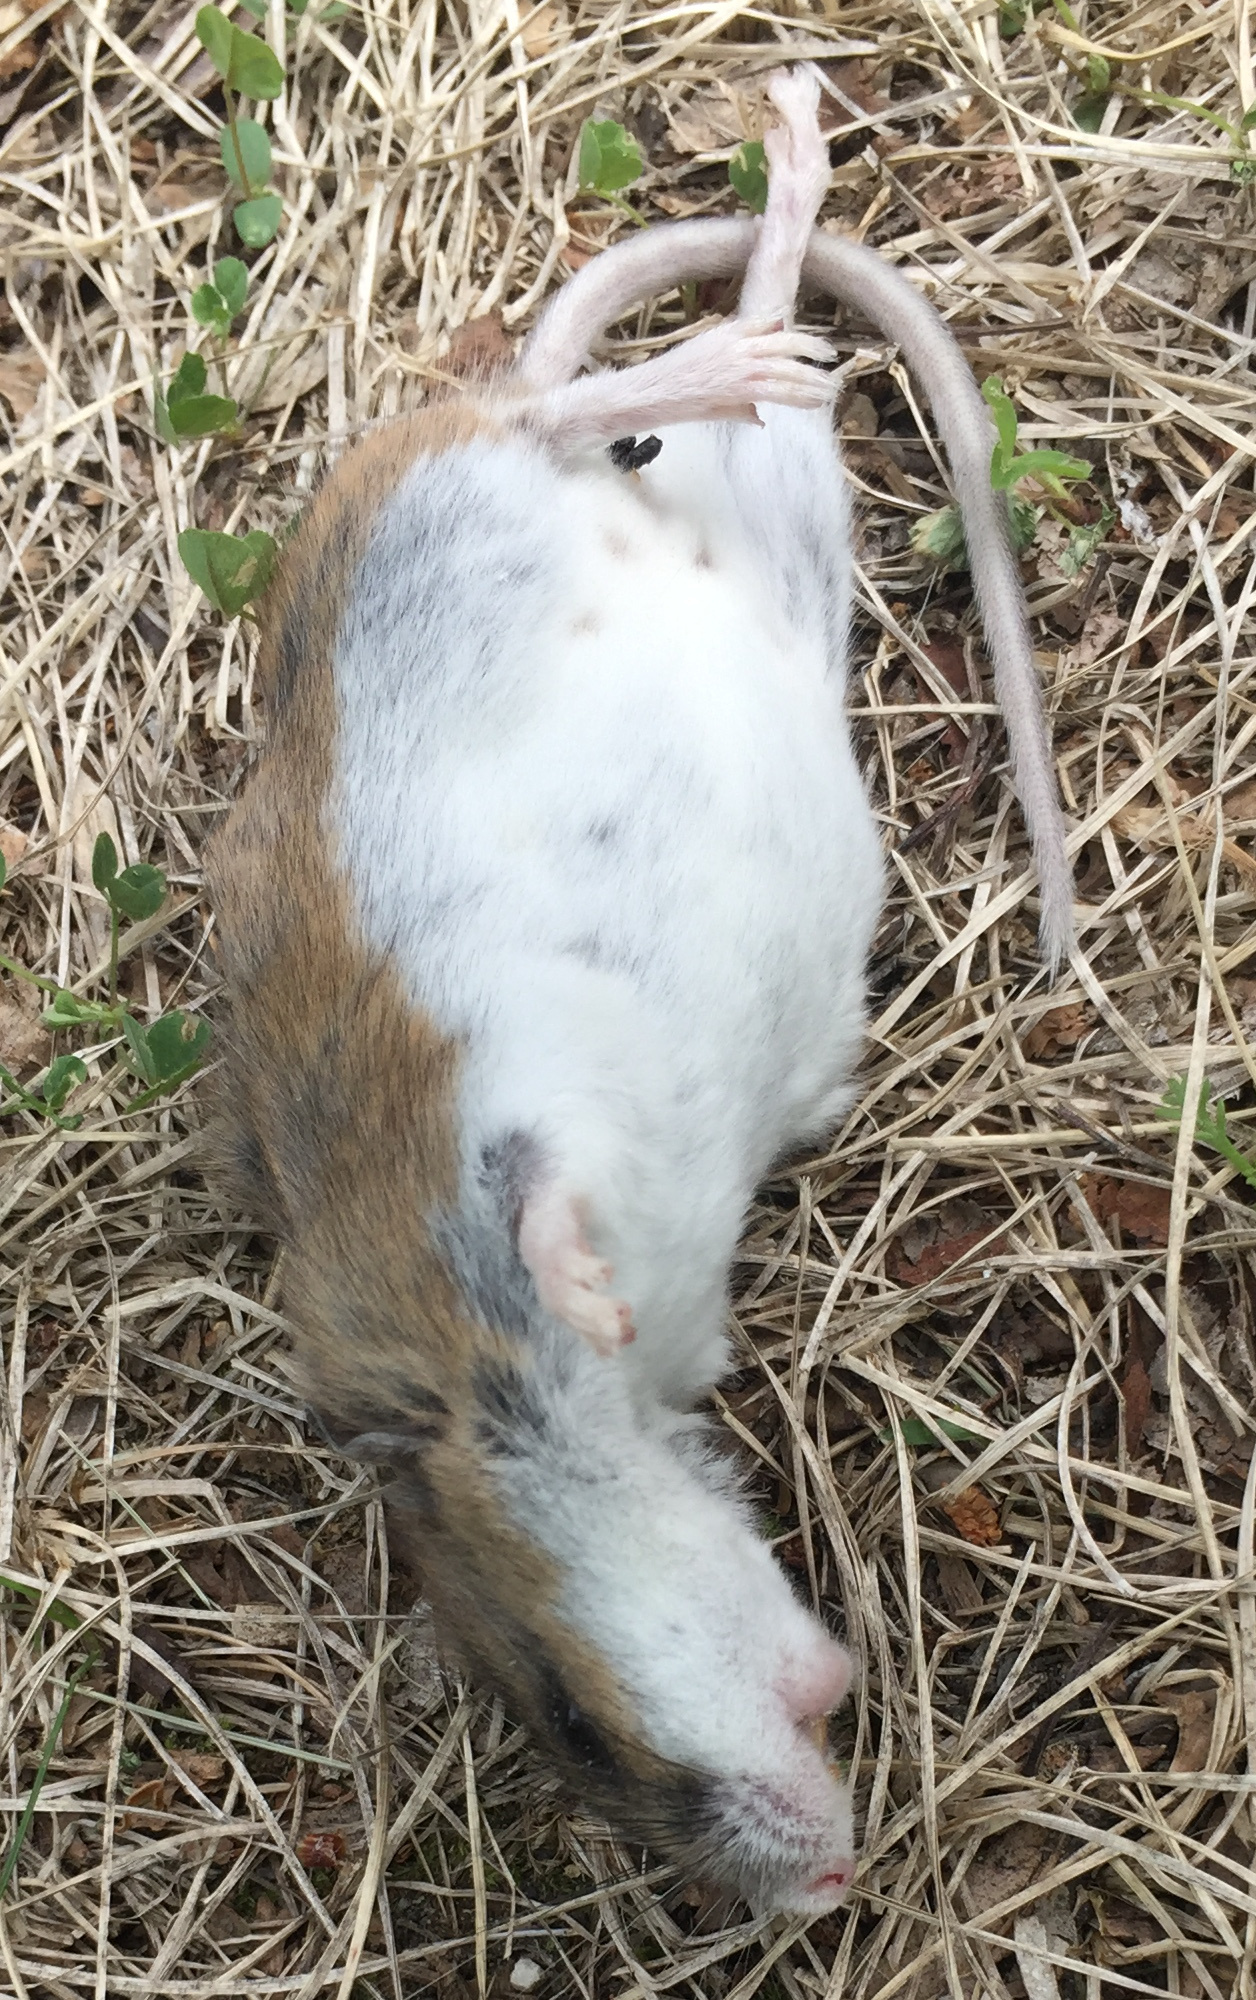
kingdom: Animalia
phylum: Chordata
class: Mammalia
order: Rodentia
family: Cricetidae
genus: Peromyscus
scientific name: Peromyscus maniculatus
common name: Deer mouse
